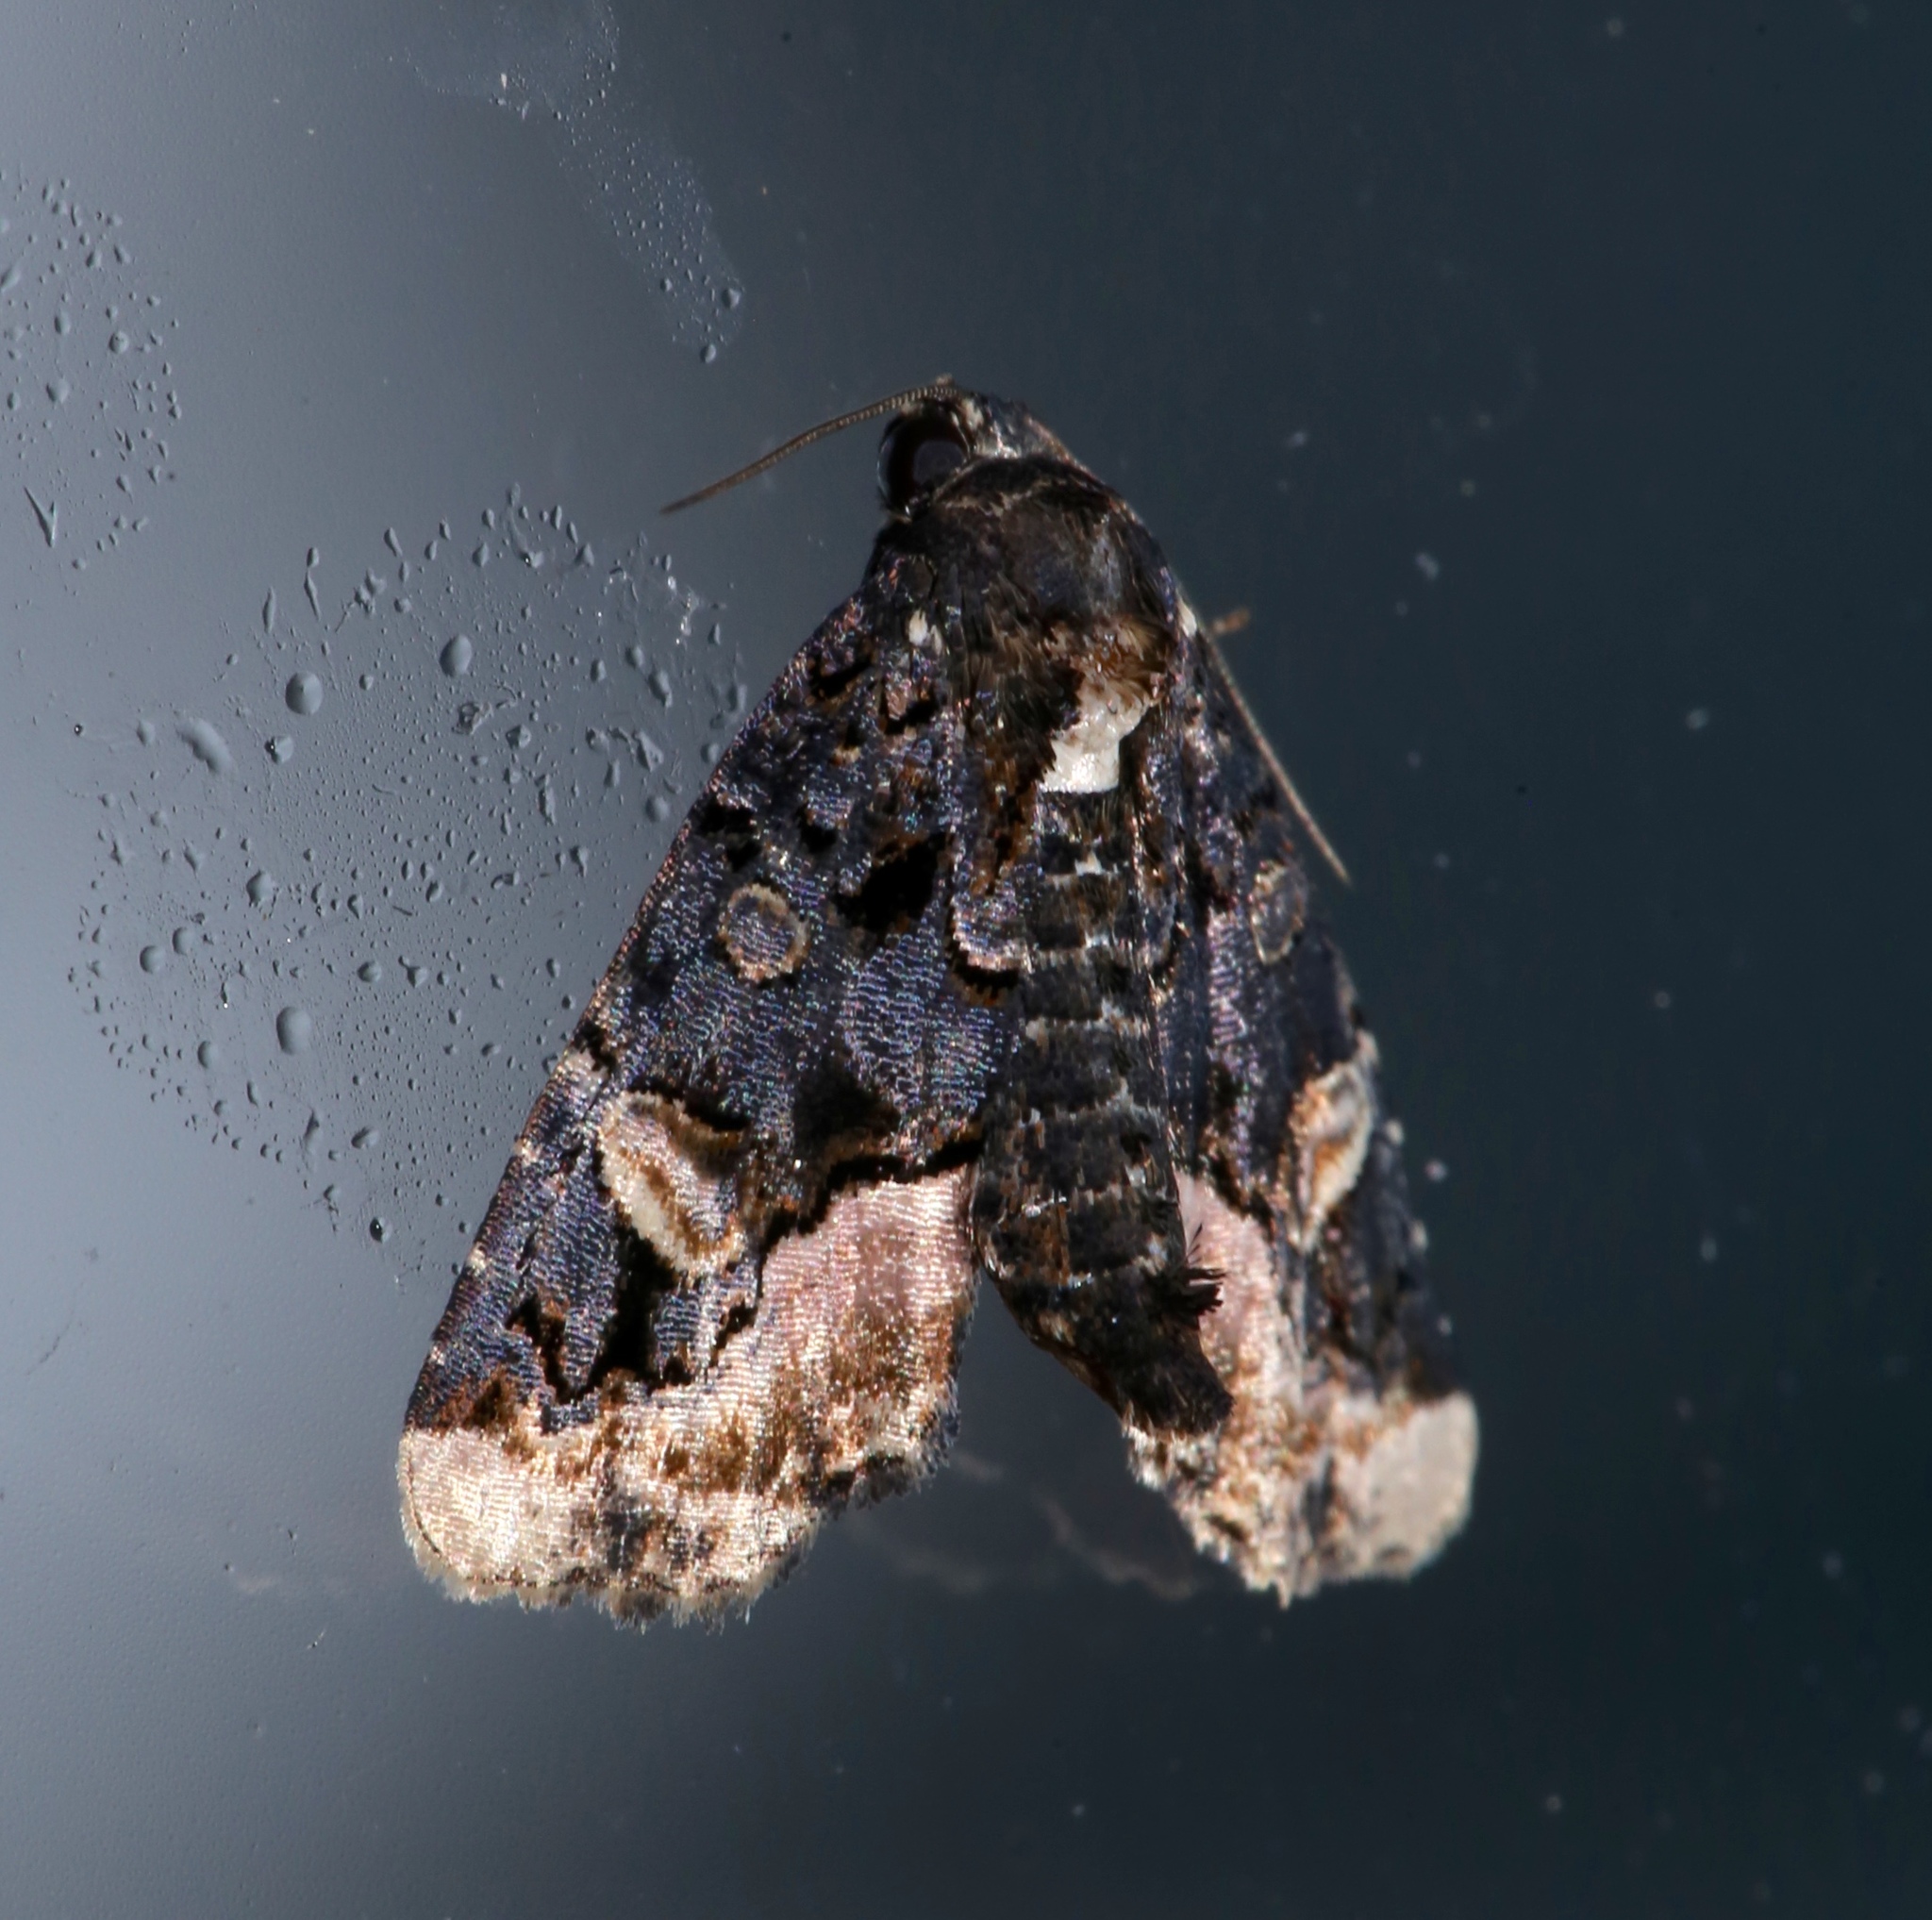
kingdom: Animalia
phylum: Arthropoda
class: Insecta
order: Lepidoptera
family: Noctuidae
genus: Homophoberia
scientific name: Homophoberia apicosa
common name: Black wedge-spot
